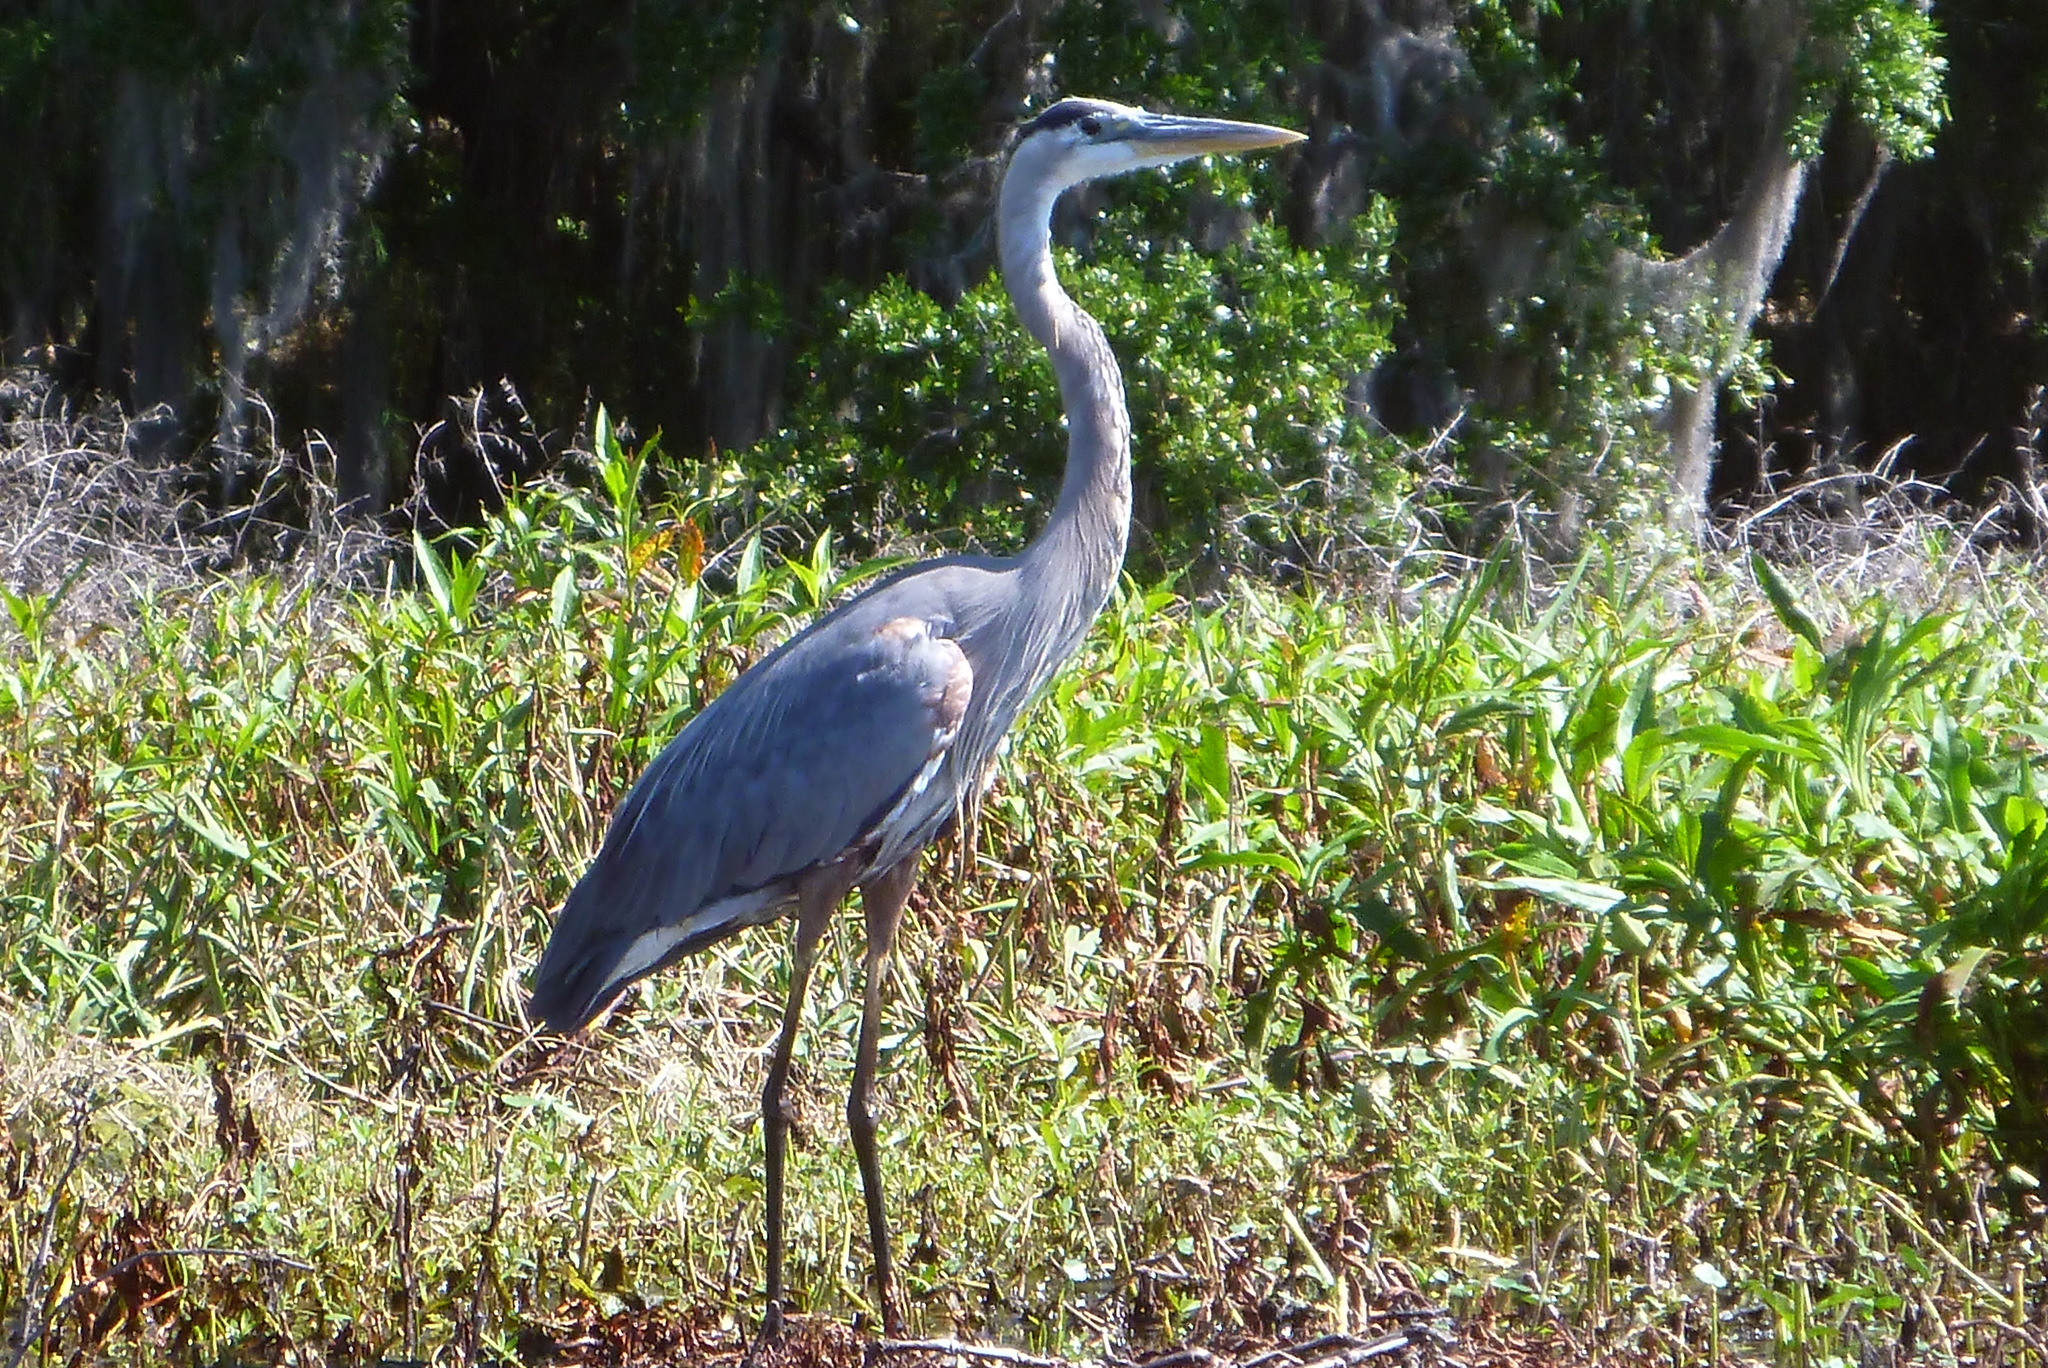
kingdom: Animalia
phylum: Chordata
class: Aves
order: Pelecaniformes
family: Ardeidae
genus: Ardea
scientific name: Ardea herodias
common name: Great blue heron
